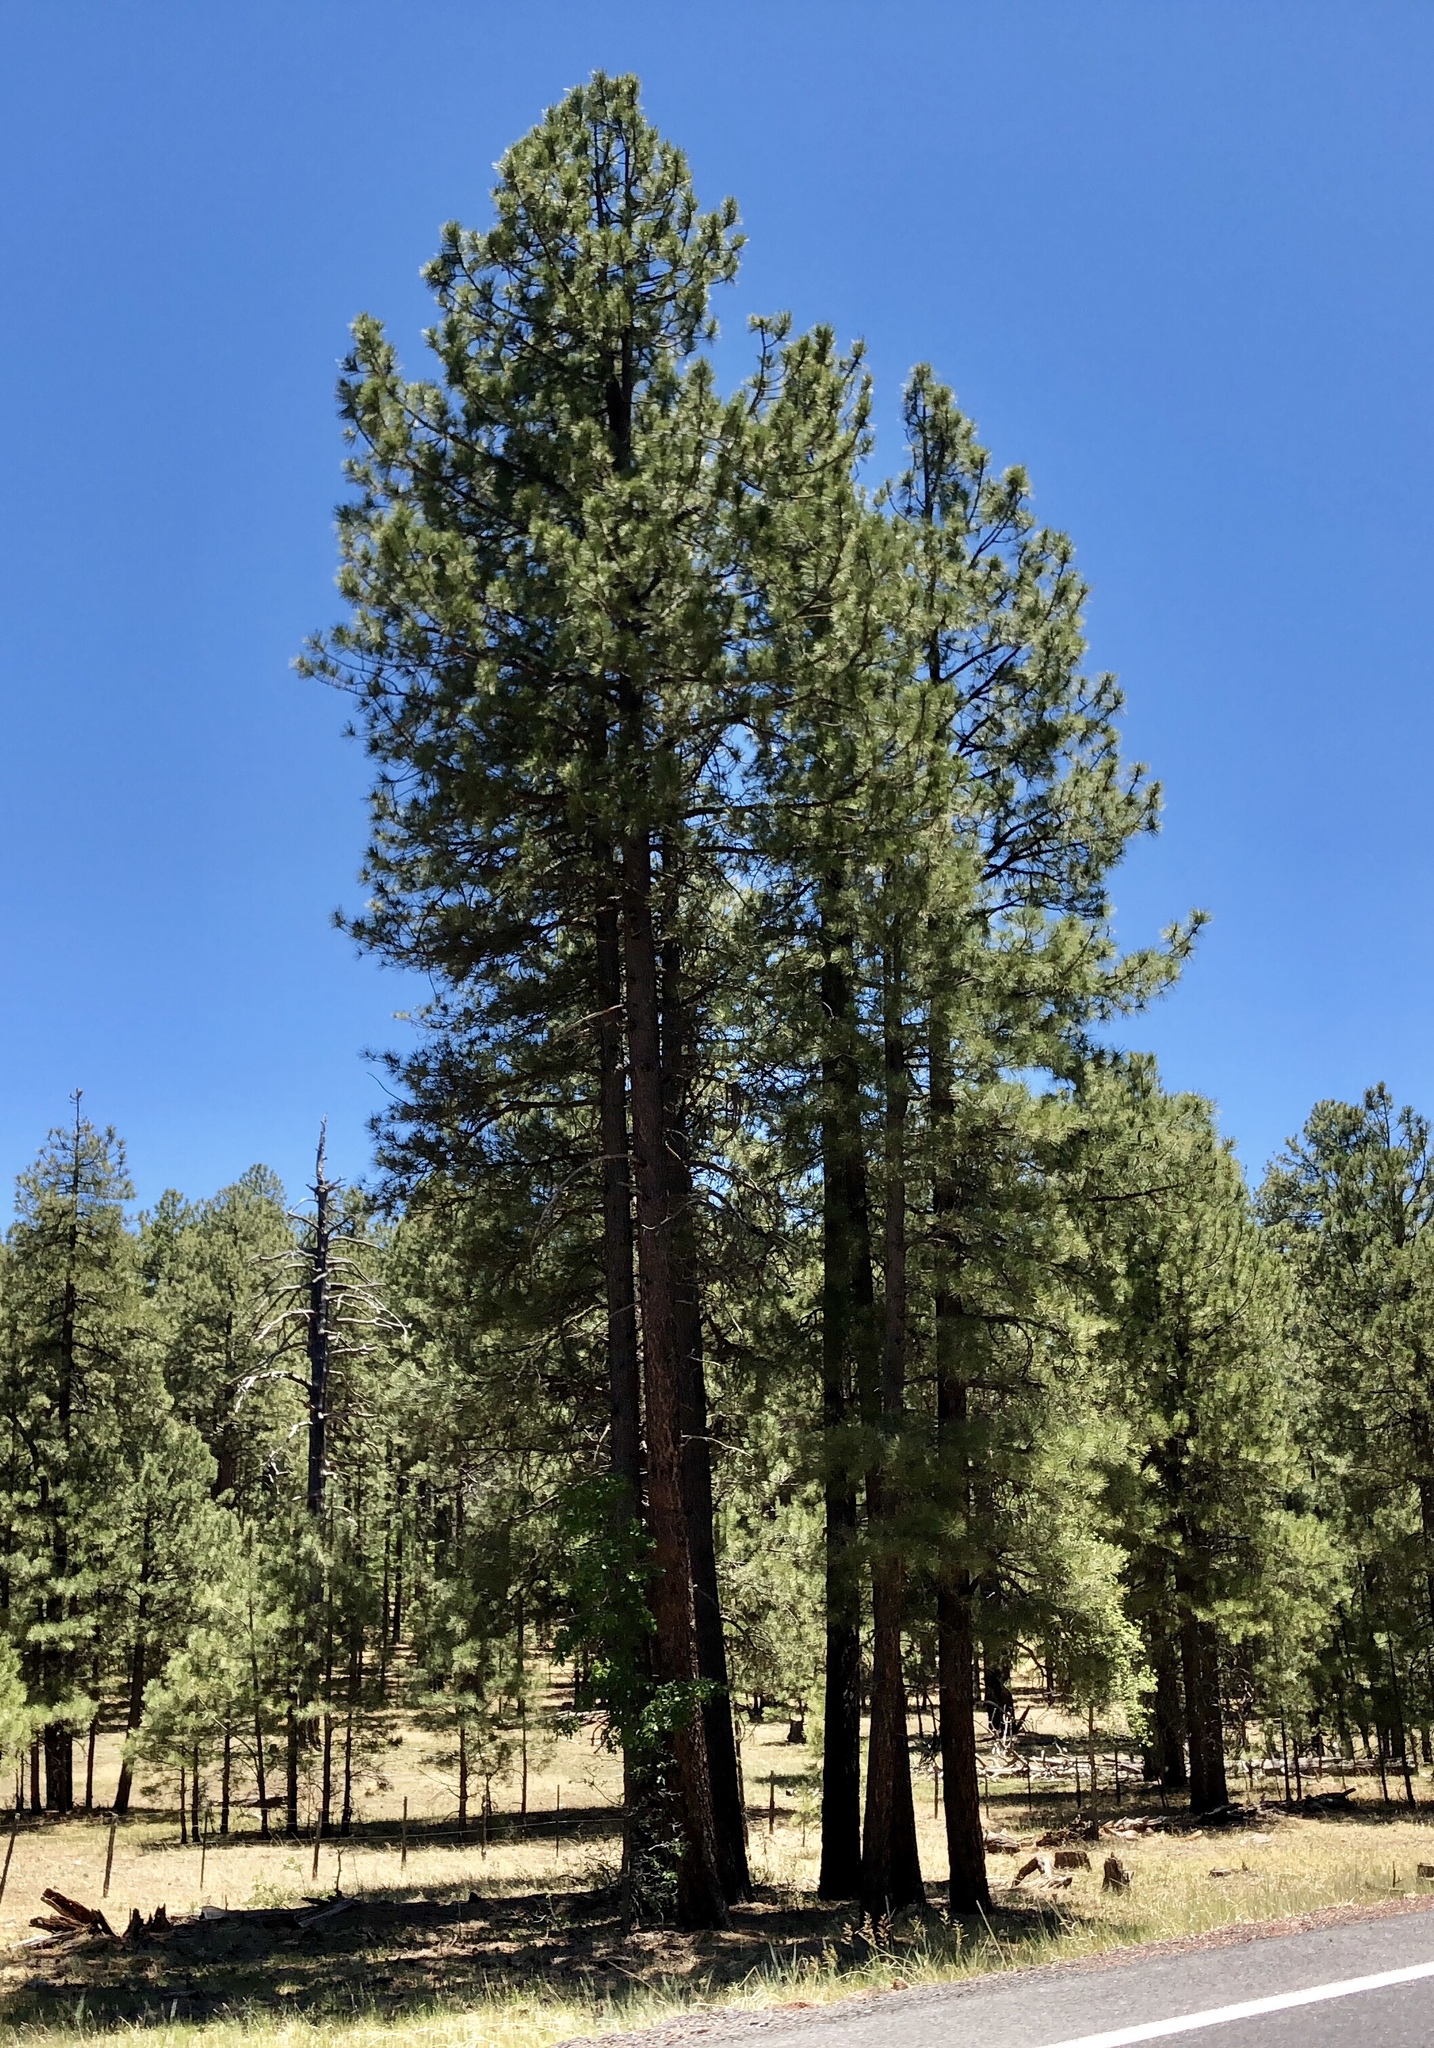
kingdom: Plantae
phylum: Tracheophyta
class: Pinopsida
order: Pinales
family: Pinaceae
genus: Pinus
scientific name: Pinus ponderosa
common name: Western yellow-pine
